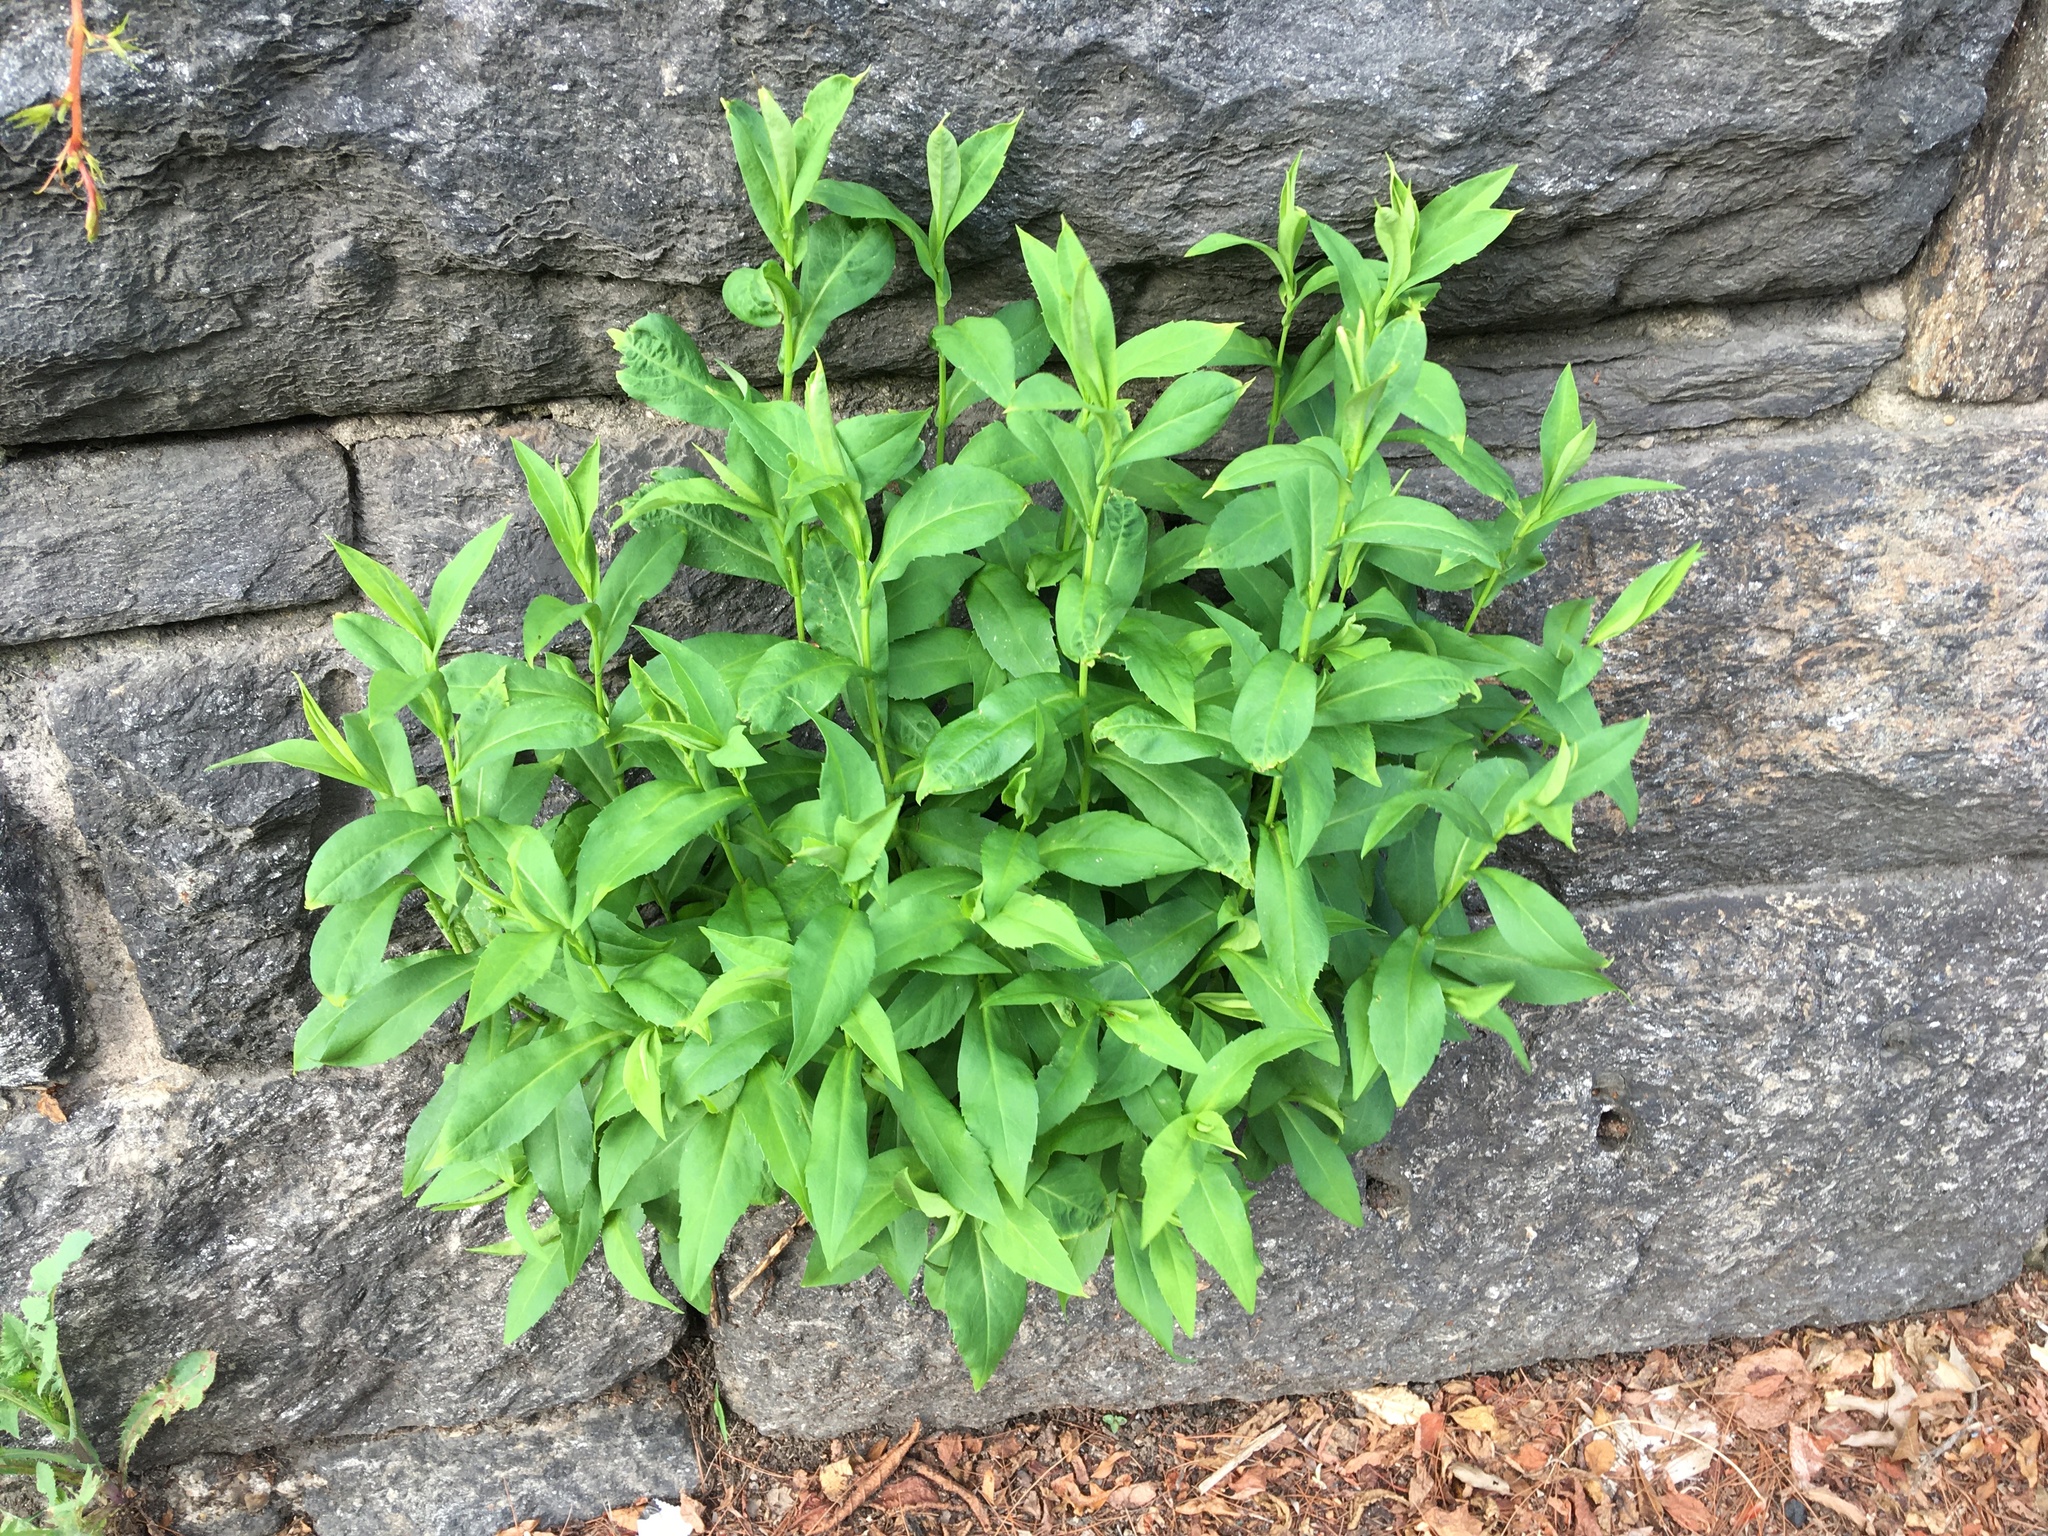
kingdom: Plantae
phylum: Tracheophyta
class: Magnoliopsida
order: Asterales
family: Asteraceae
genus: Solidago
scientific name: Solidago juncea
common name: Early goldenrod
